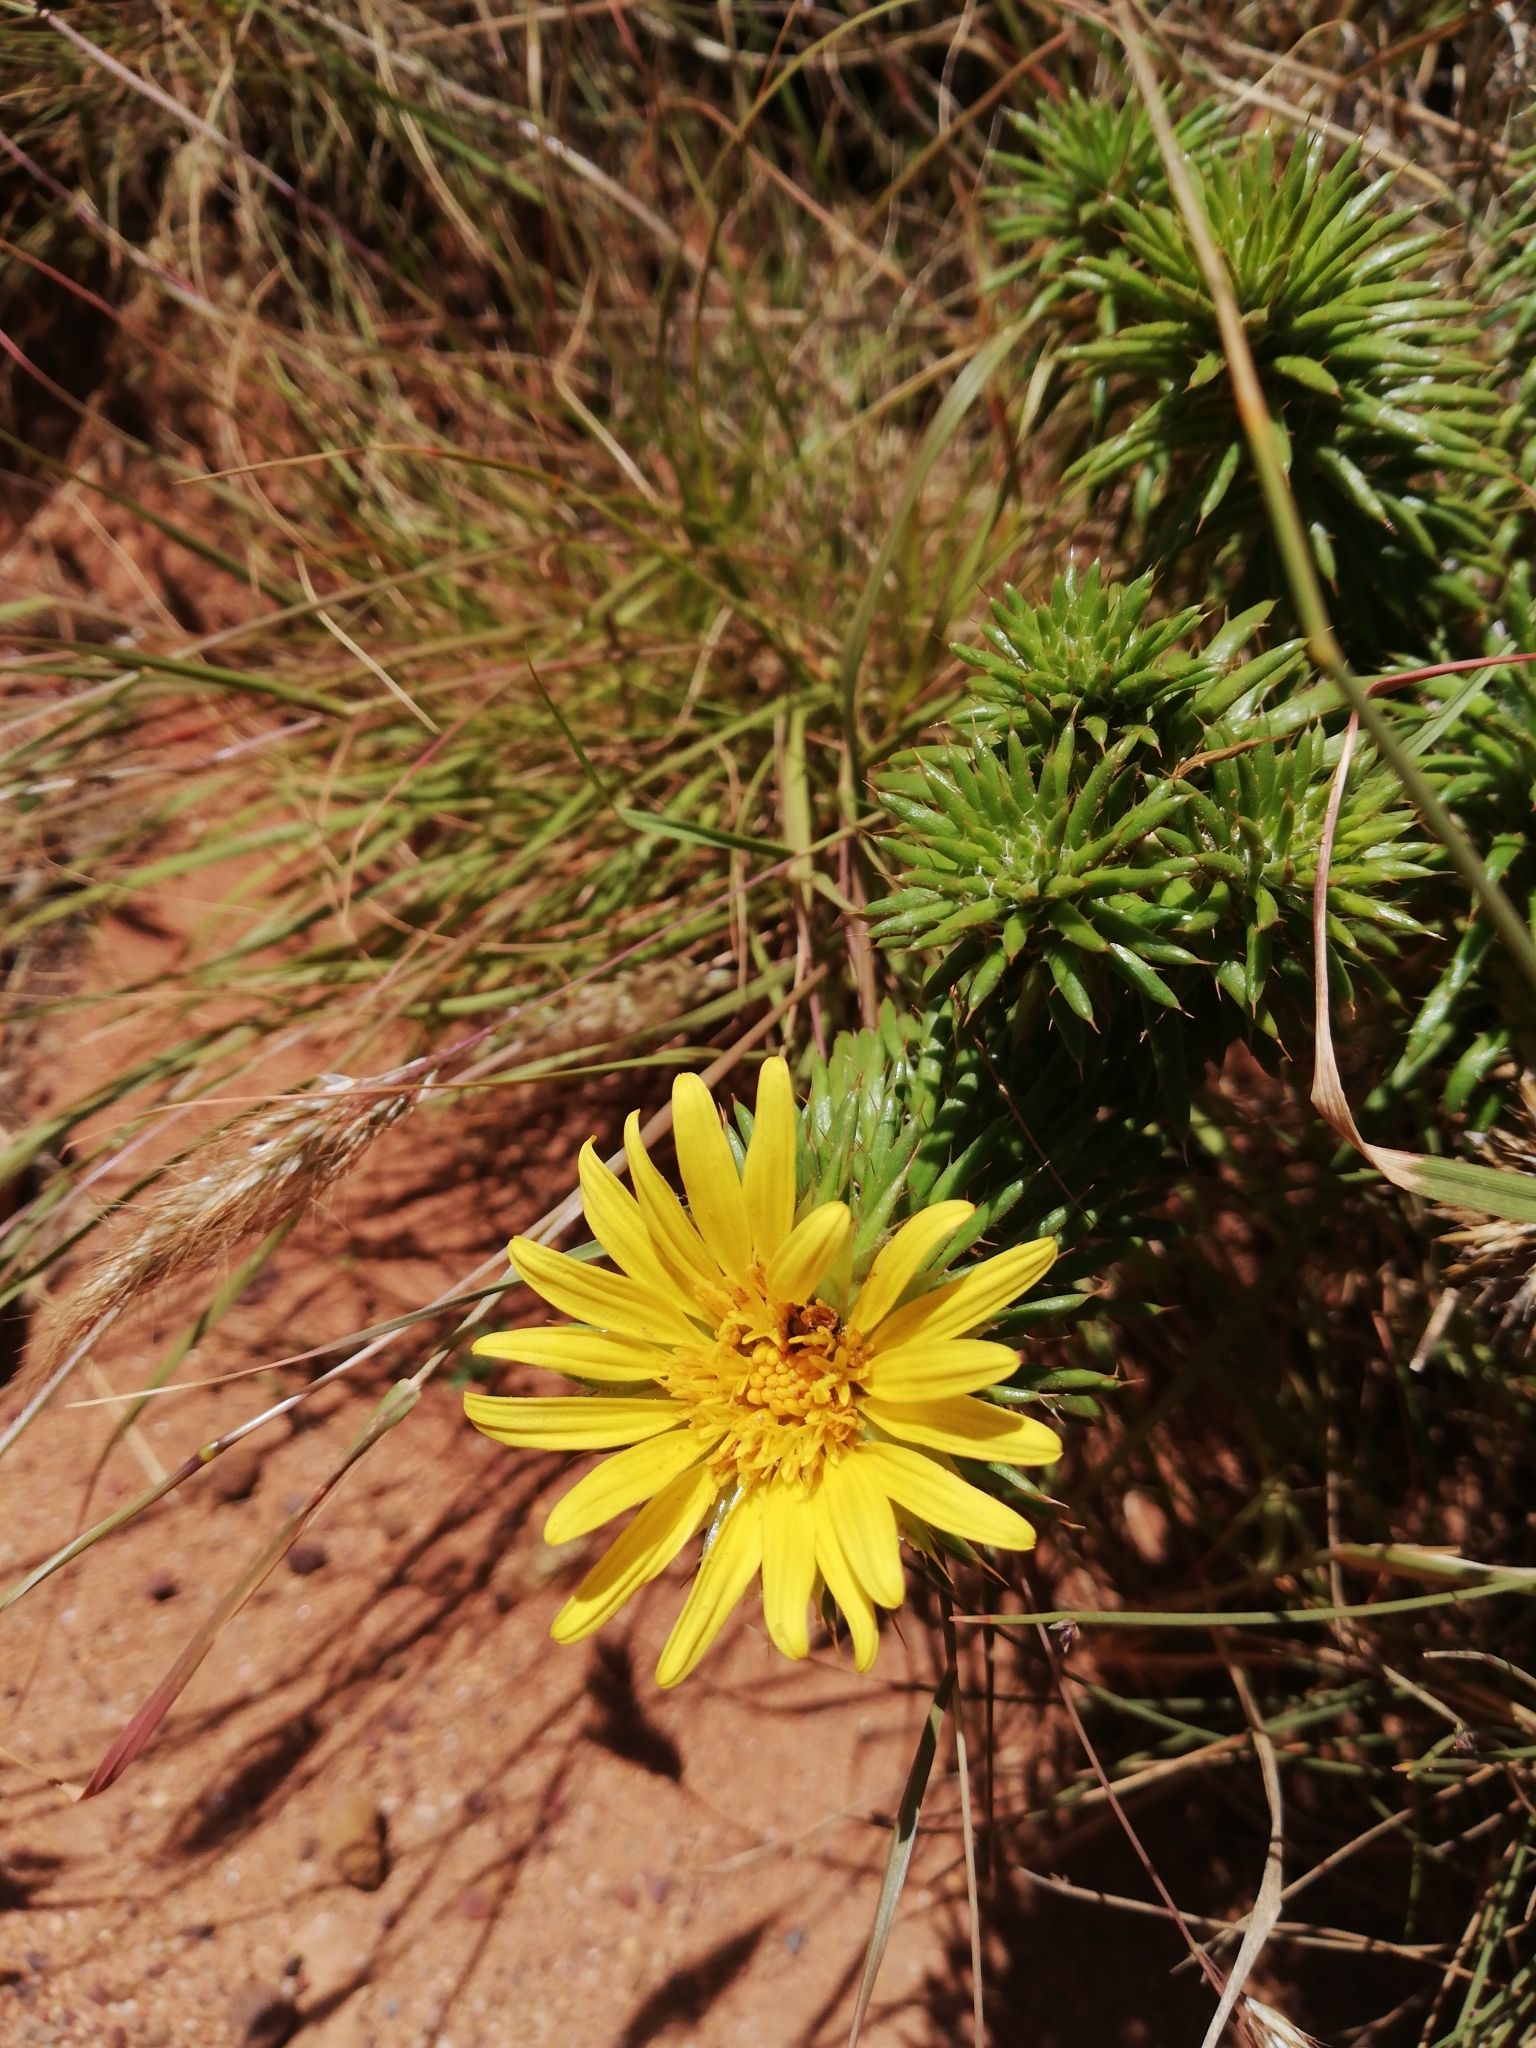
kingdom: Plantae
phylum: Tracheophyta
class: Magnoliopsida
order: Asterales
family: Asteraceae
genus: Cullumia
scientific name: Cullumia squarrosa
